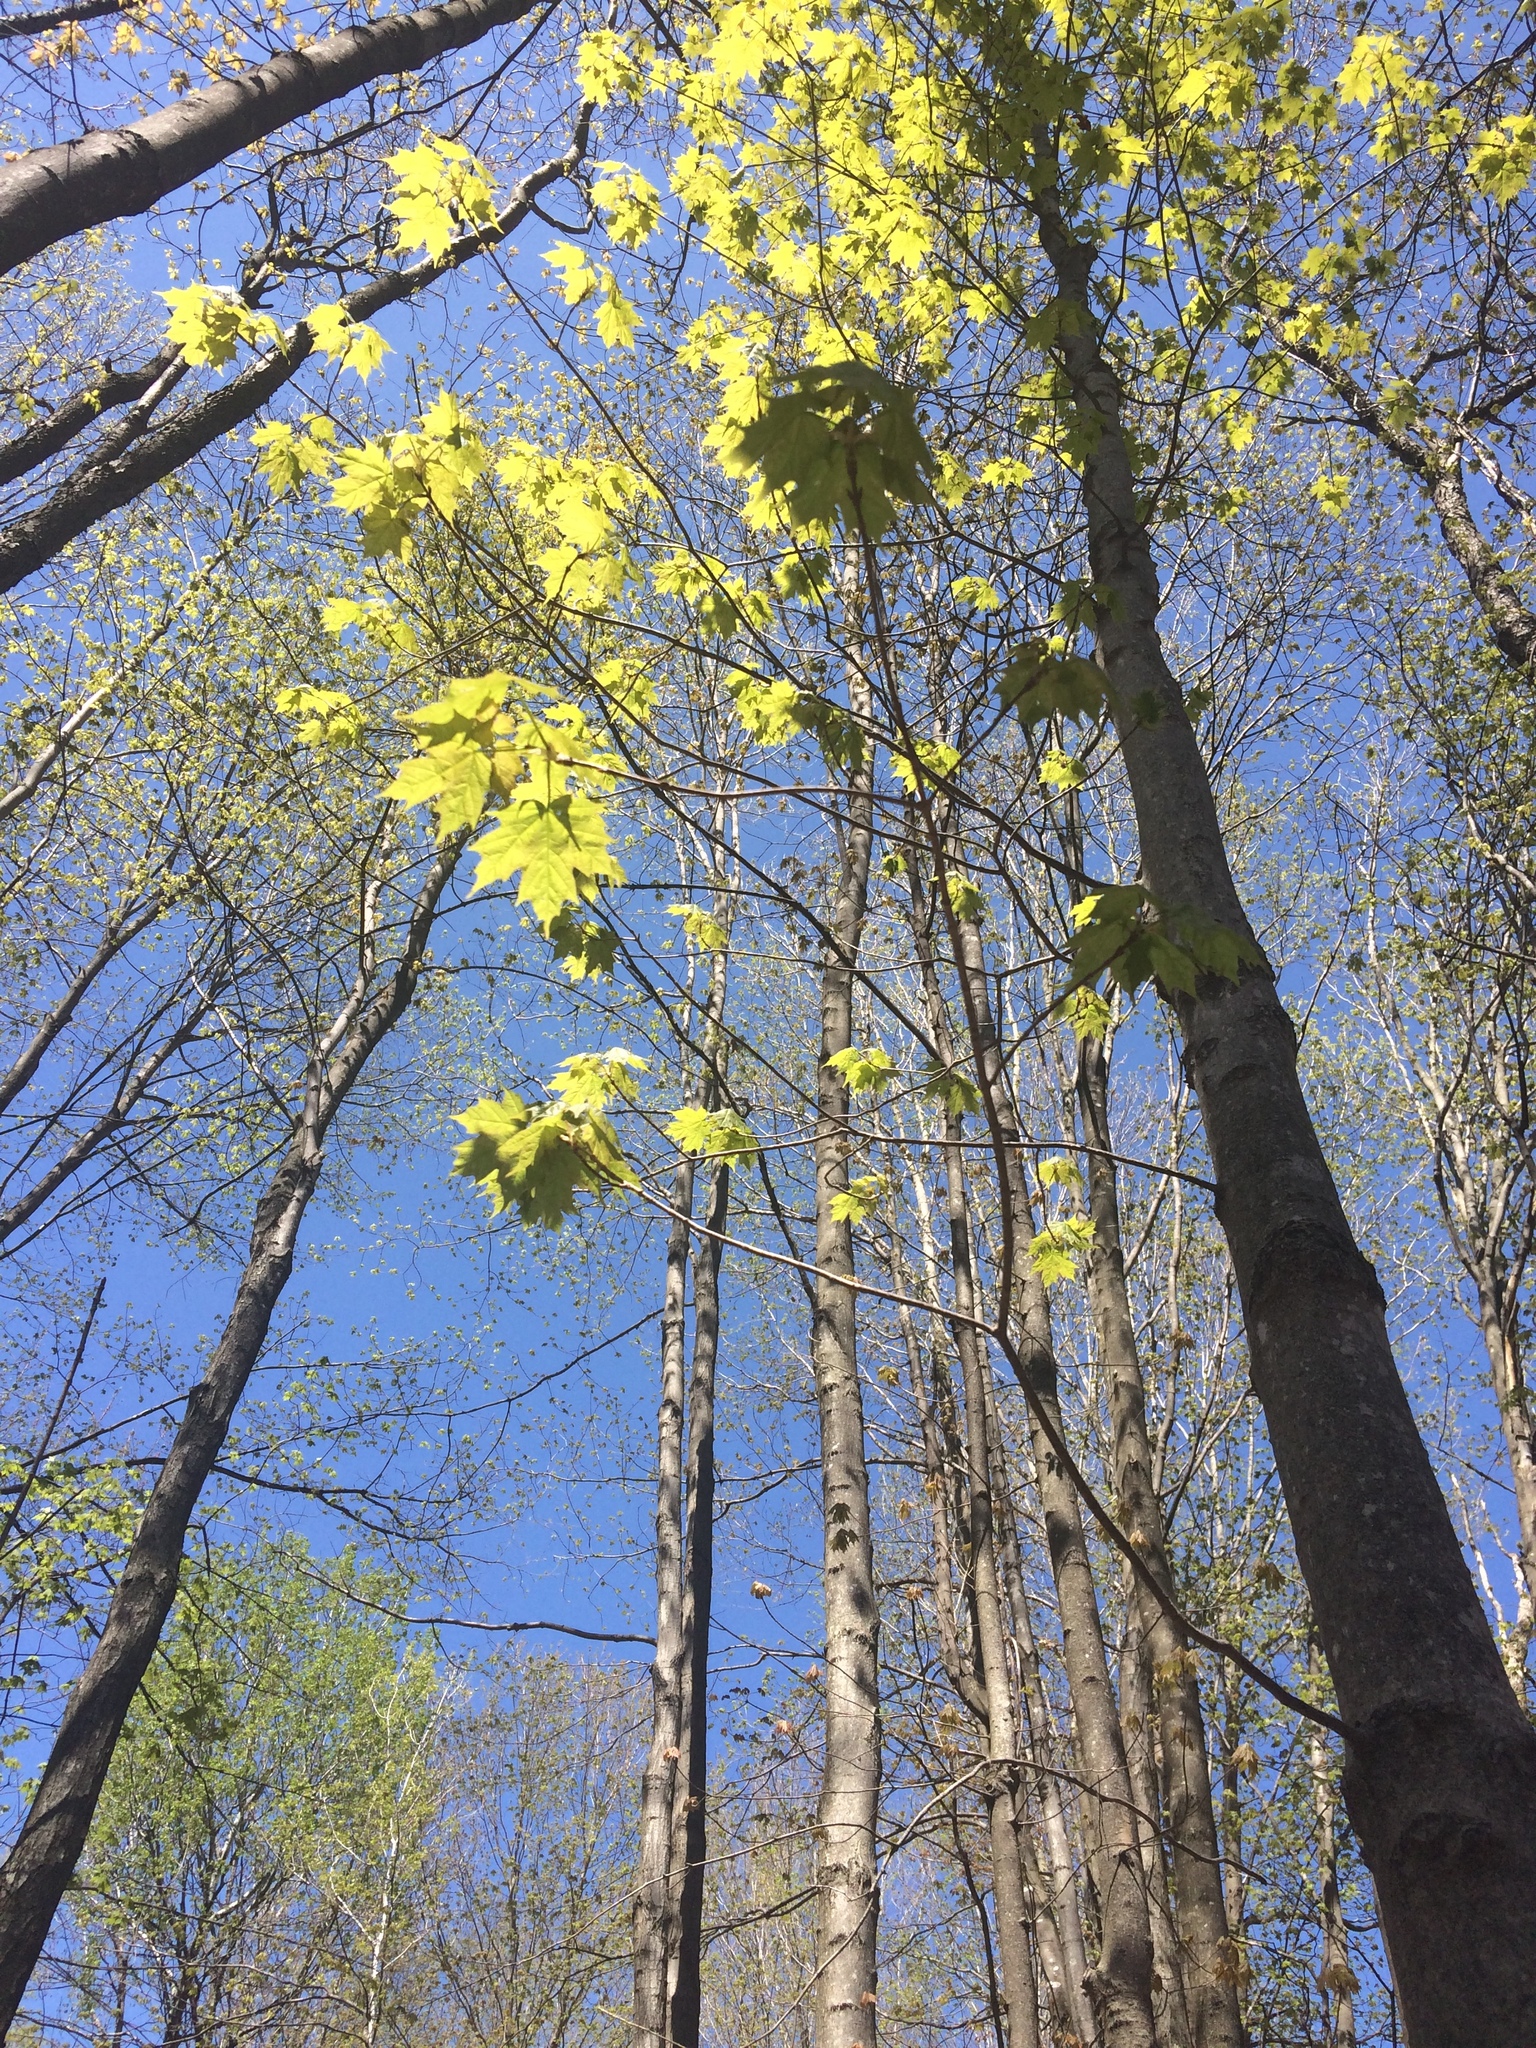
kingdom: Plantae
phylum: Tracheophyta
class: Magnoliopsida
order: Sapindales
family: Sapindaceae
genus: Acer
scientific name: Acer saccharum
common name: Sugar maple
